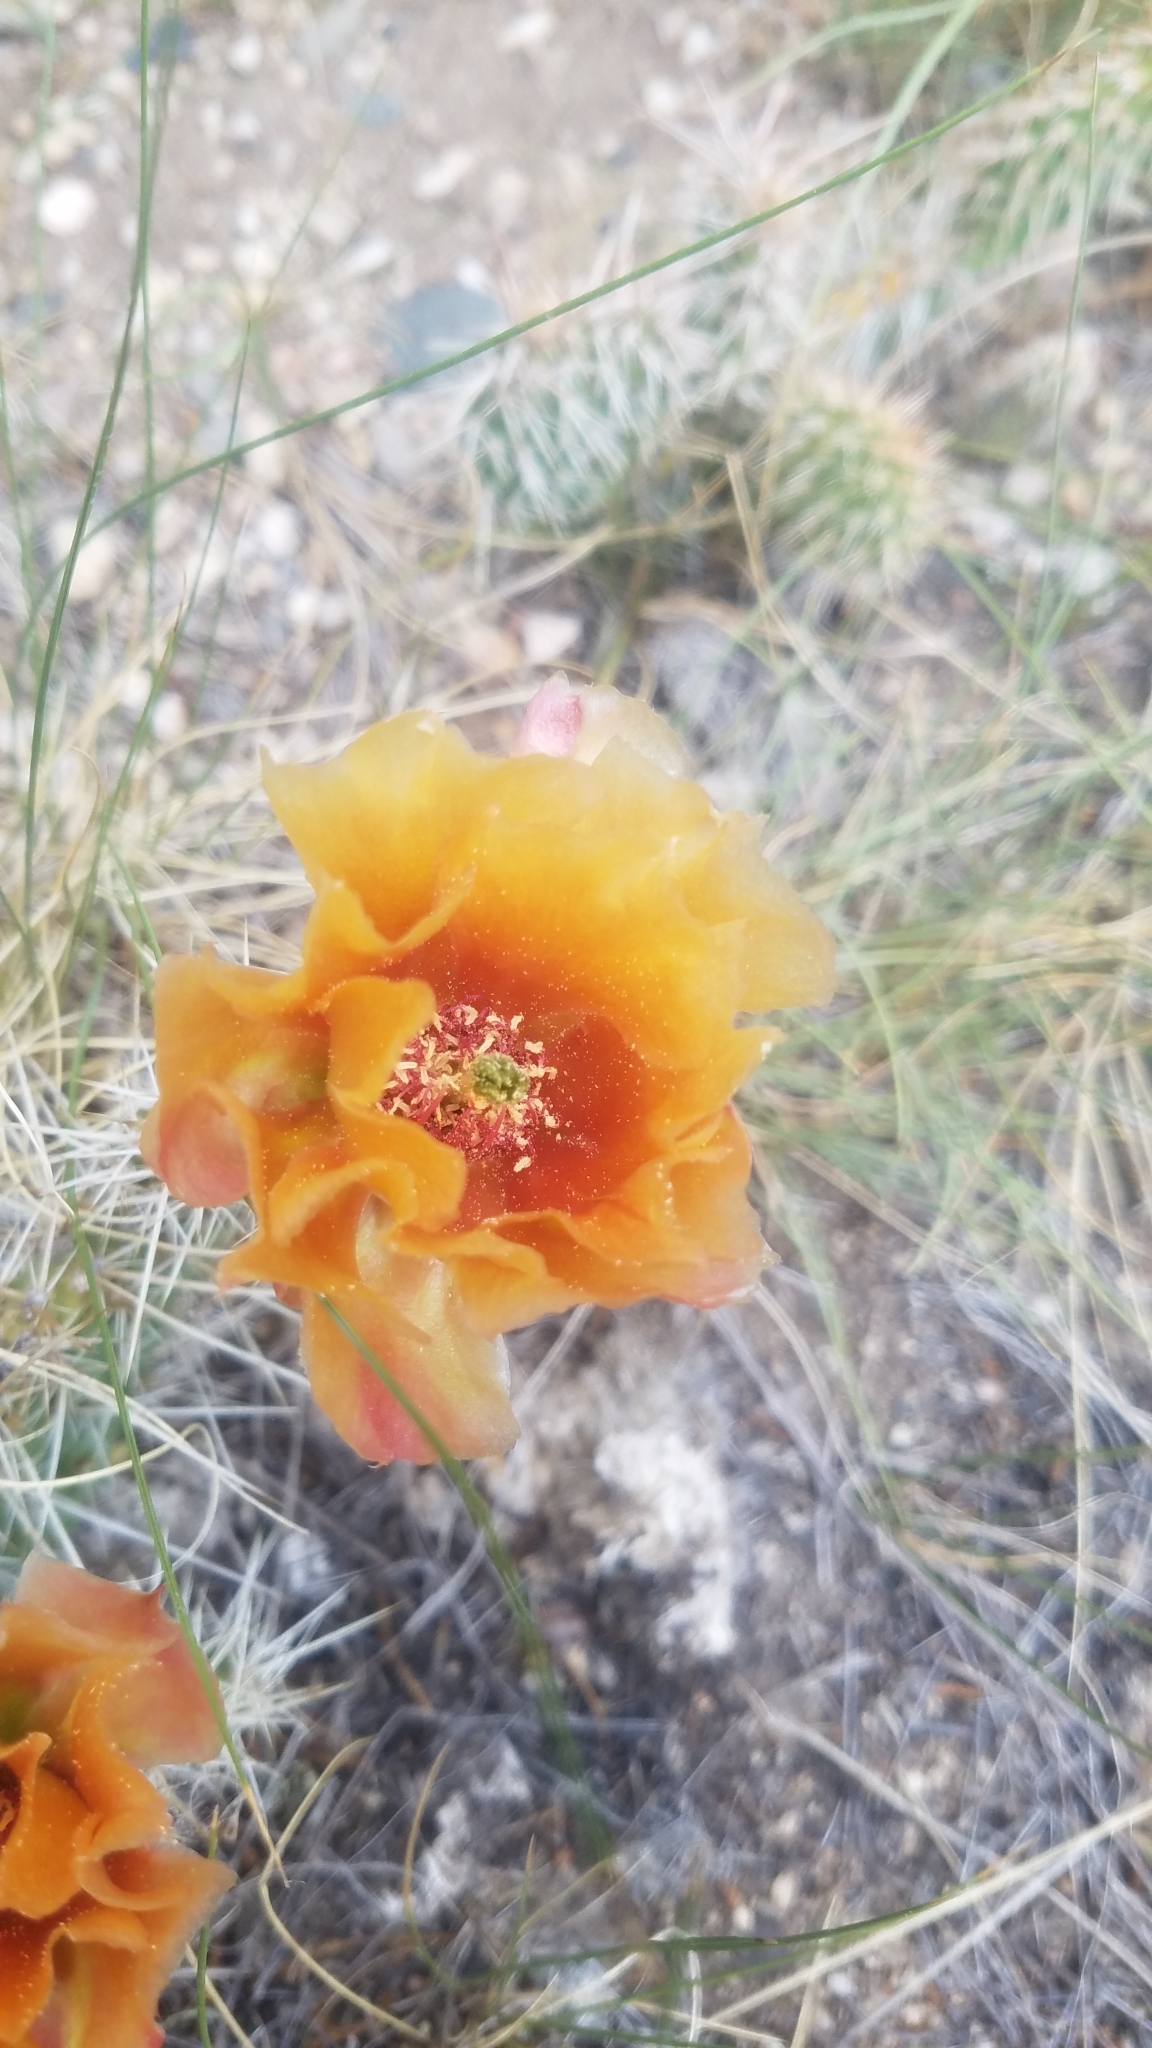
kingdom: Plantae
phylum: Tracheophyta
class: Magnoliopsida
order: Caryophyllales
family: Cactaceae
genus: Opuntia
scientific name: Opuntia polyacantha
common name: Plains prickly-pear
